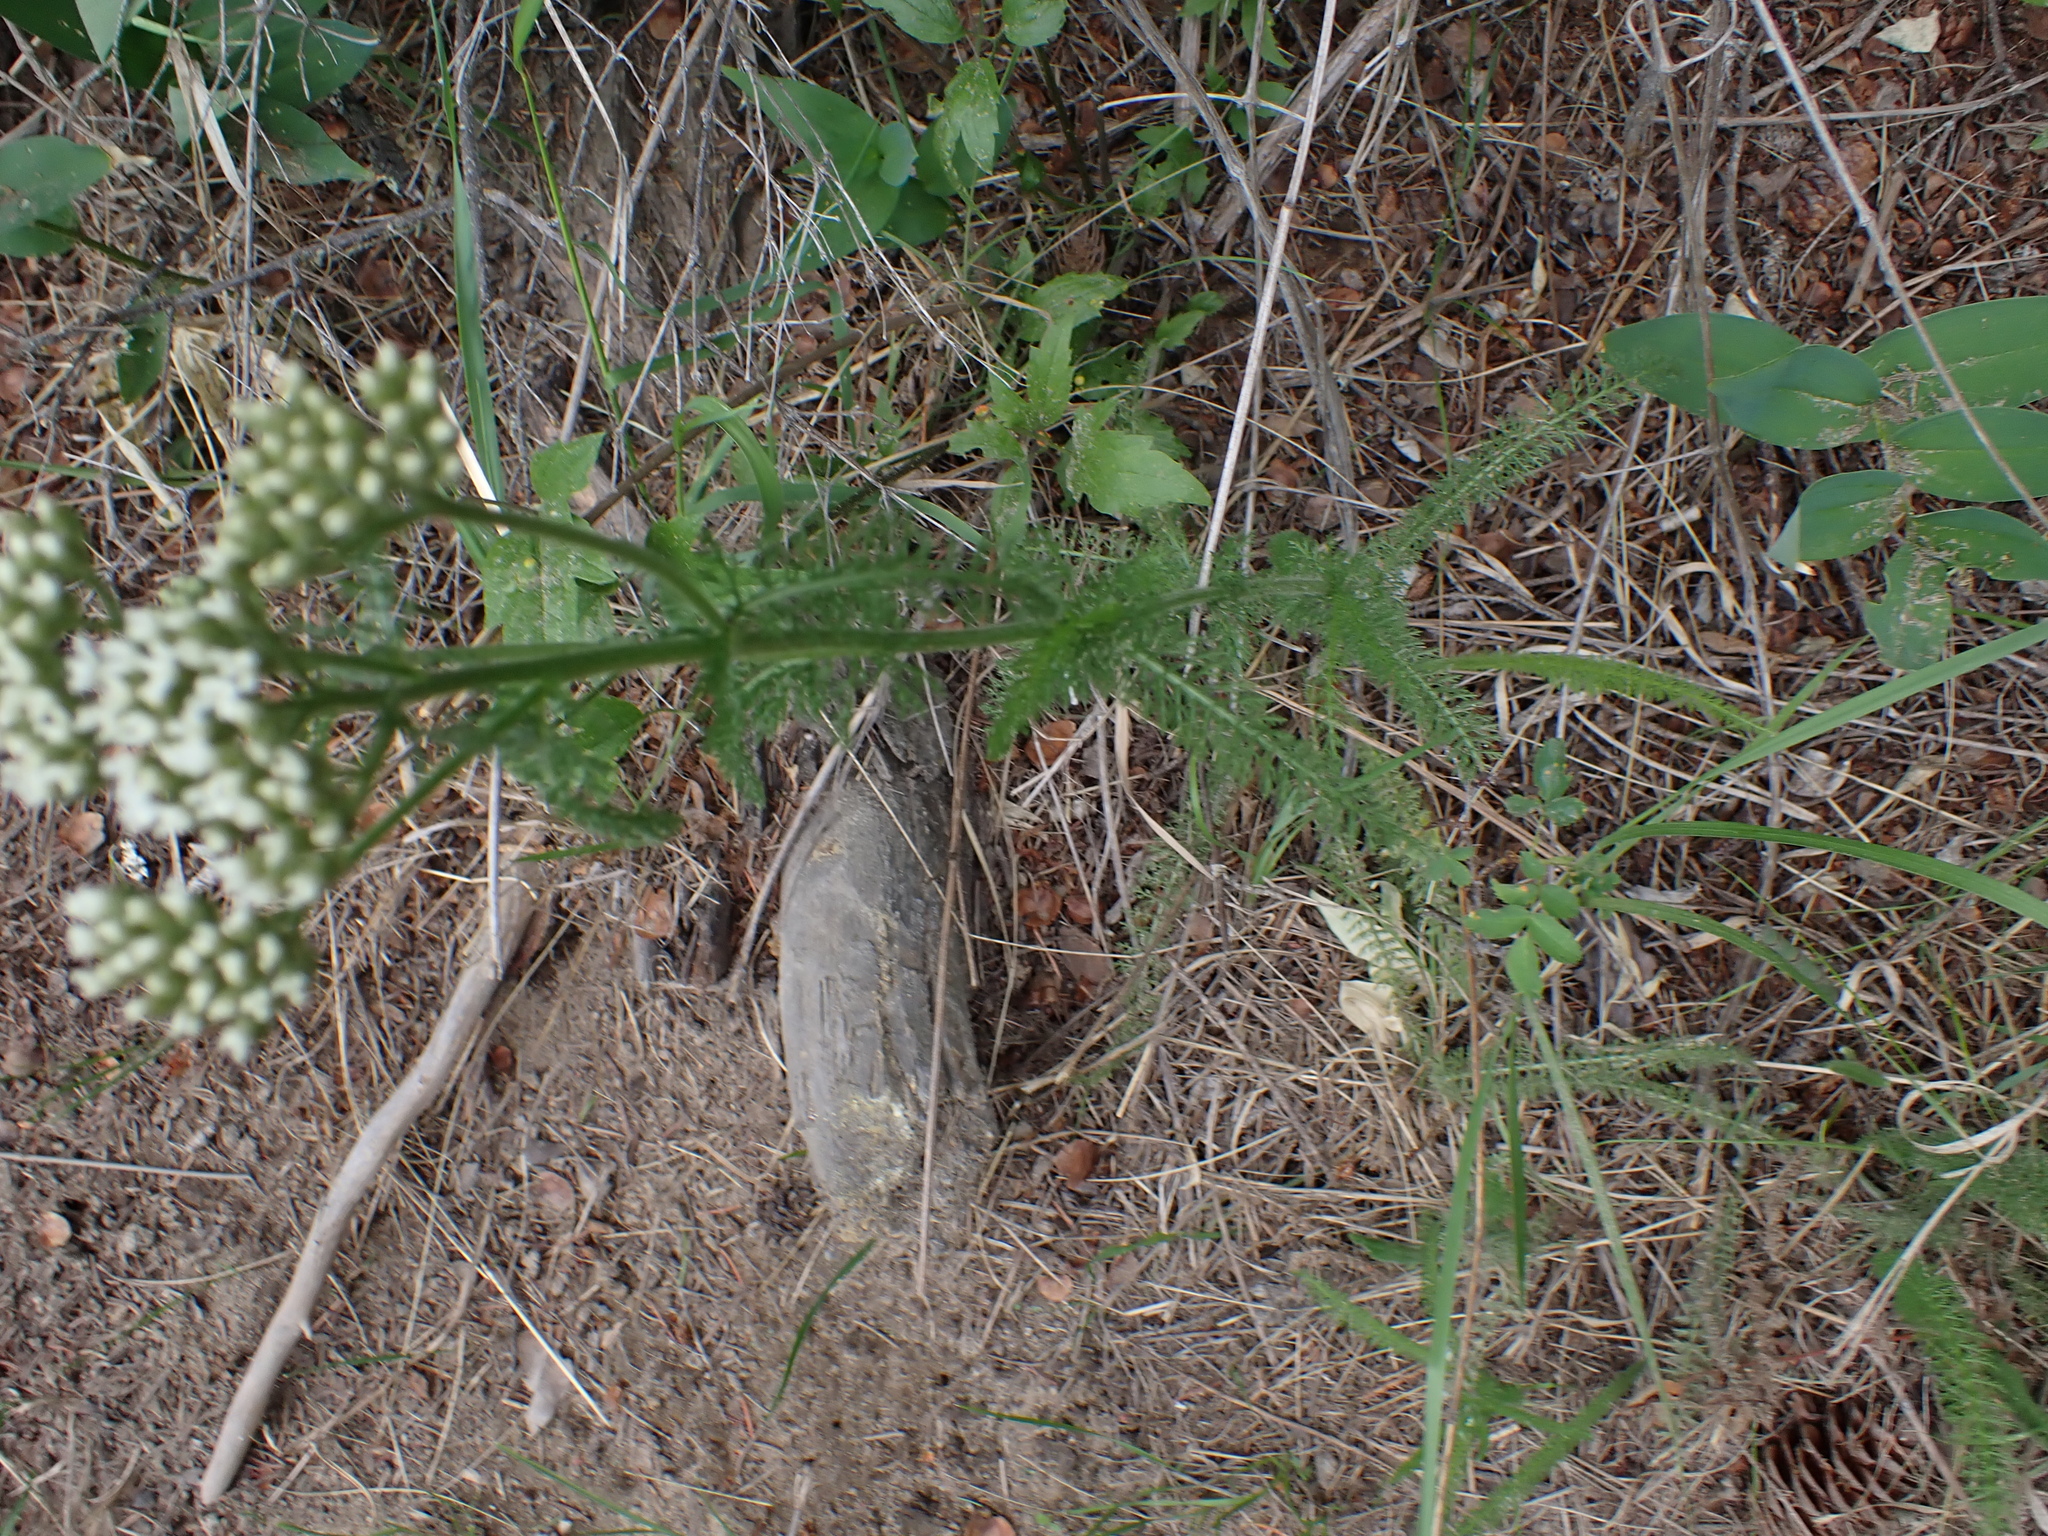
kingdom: Plantae
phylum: Tracheophyta
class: Magnoliopsida
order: Asterales
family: Asteraceae
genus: Achillea
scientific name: Achillea millefolium
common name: Yarrow
